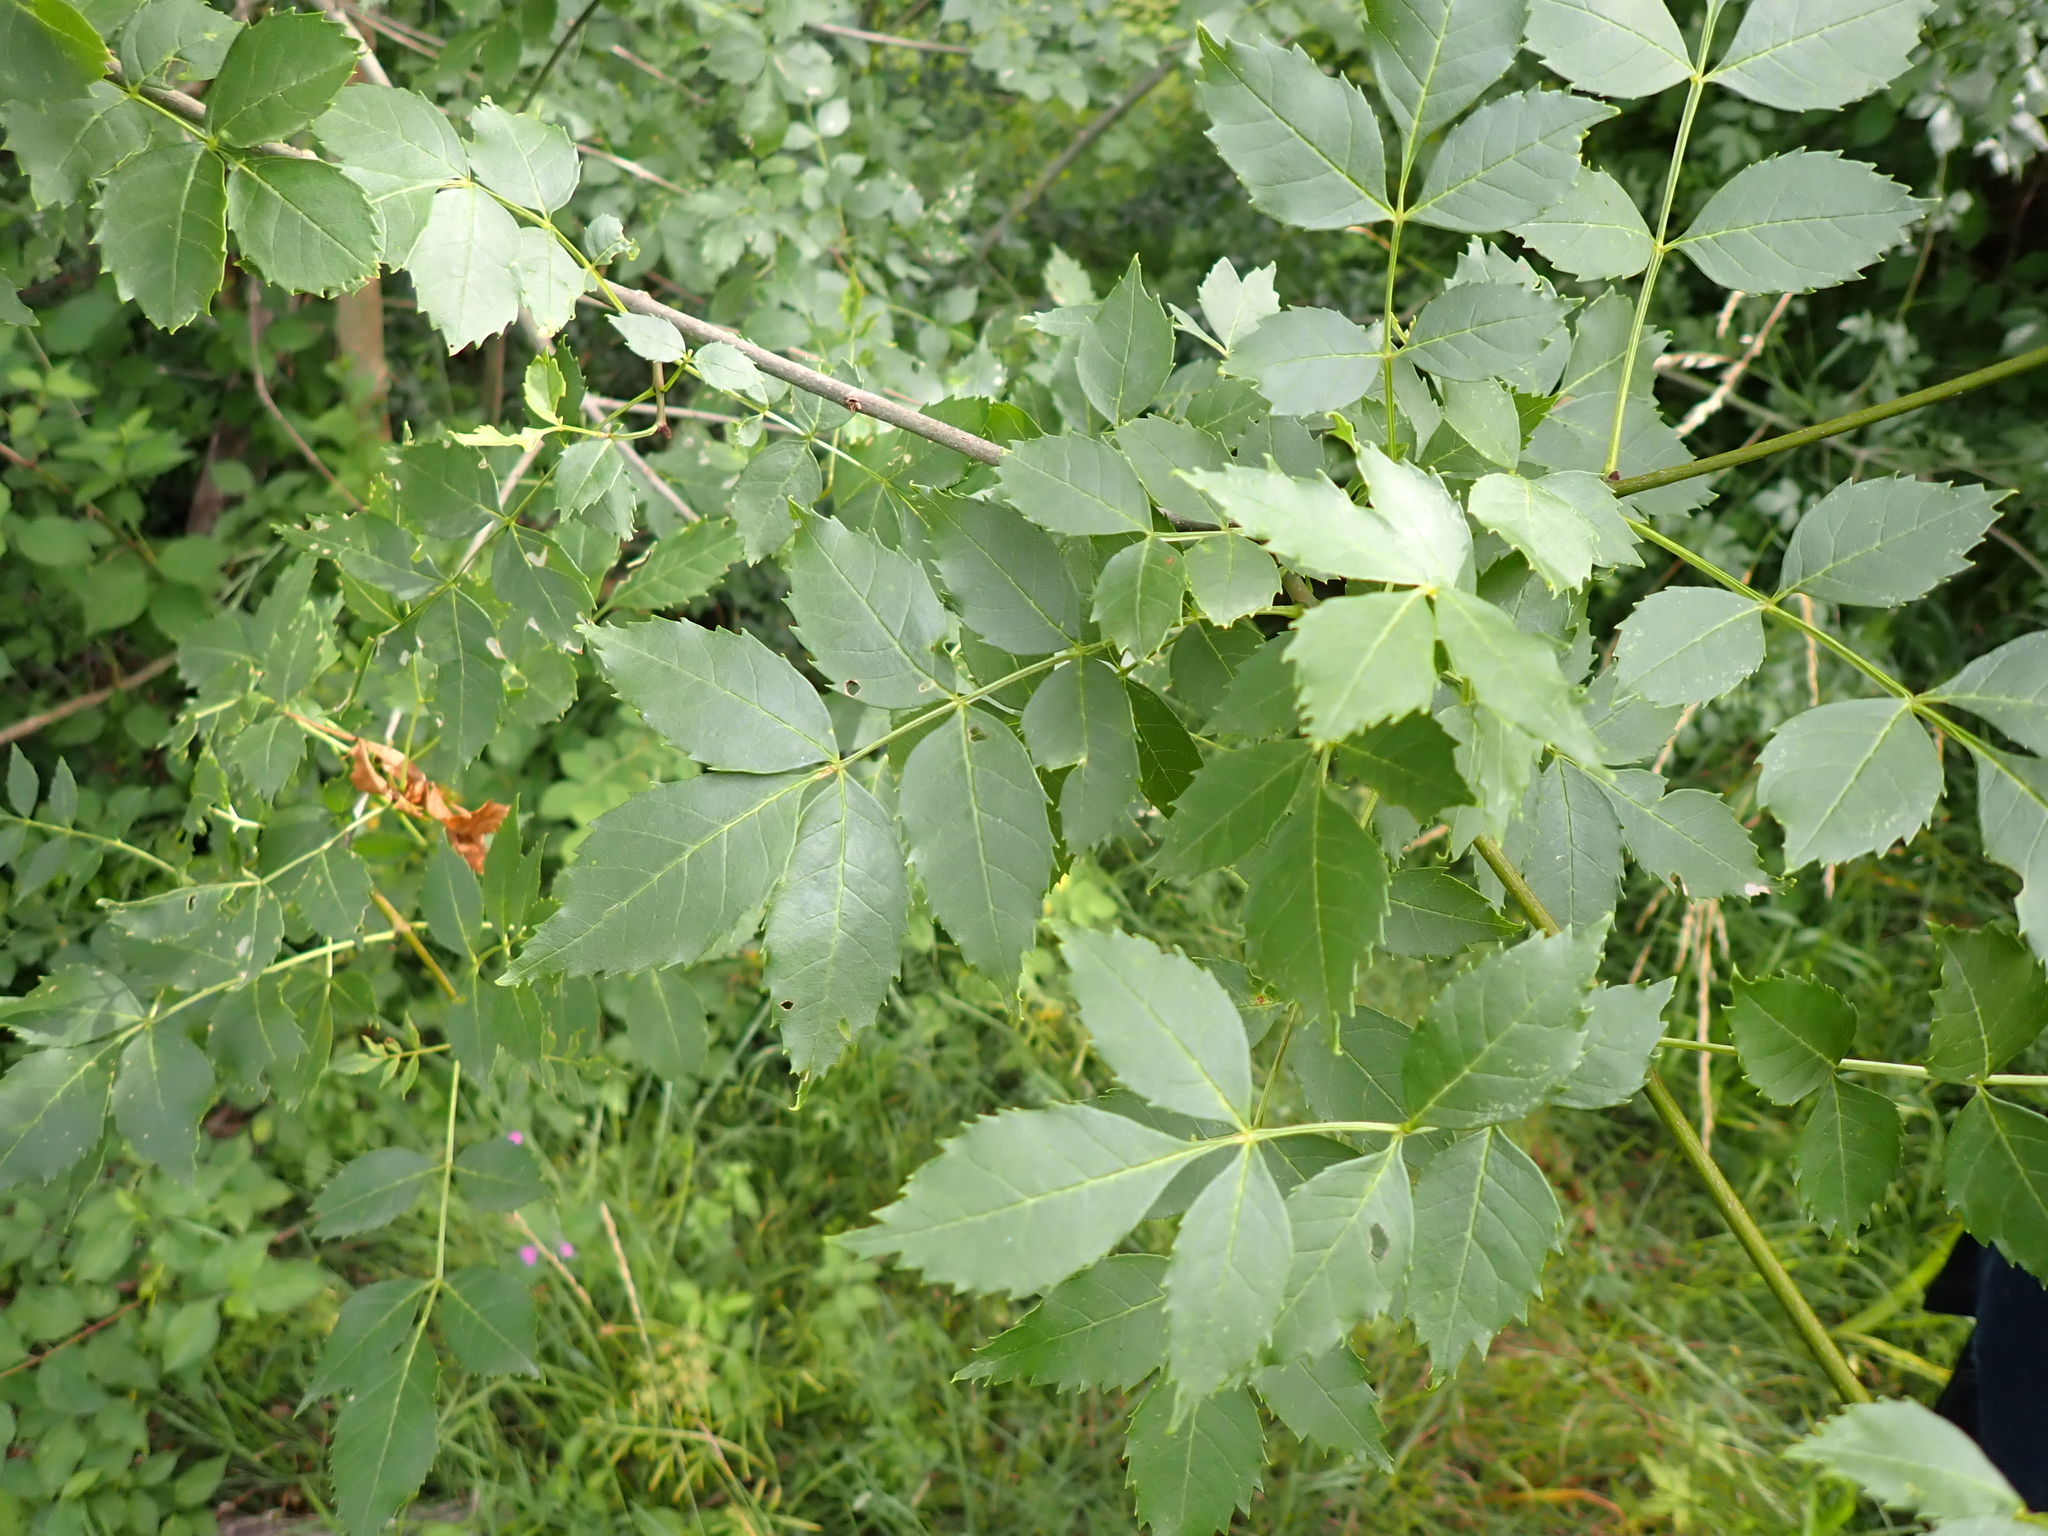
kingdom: Plantae
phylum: Tracheophyta
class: Magnoliopsida
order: Lamiales
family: Oleaceae
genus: Fraxinus
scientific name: Fraxinus angustifolia
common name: Narrow-leafed ash
